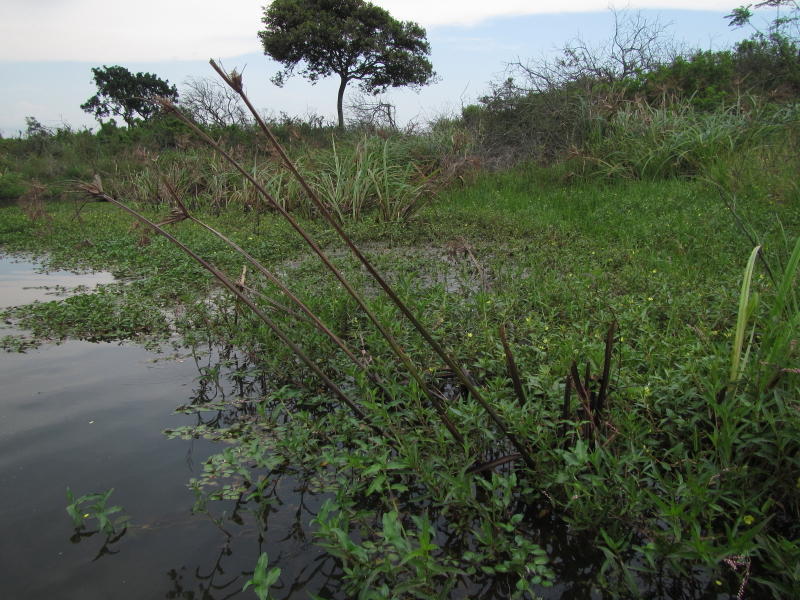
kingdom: Animalia
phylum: Chordata
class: Amphibia
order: Anura
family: Hyperoliidae
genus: Hyperolius
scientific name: Hyperolius argus
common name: Argus reed frog
